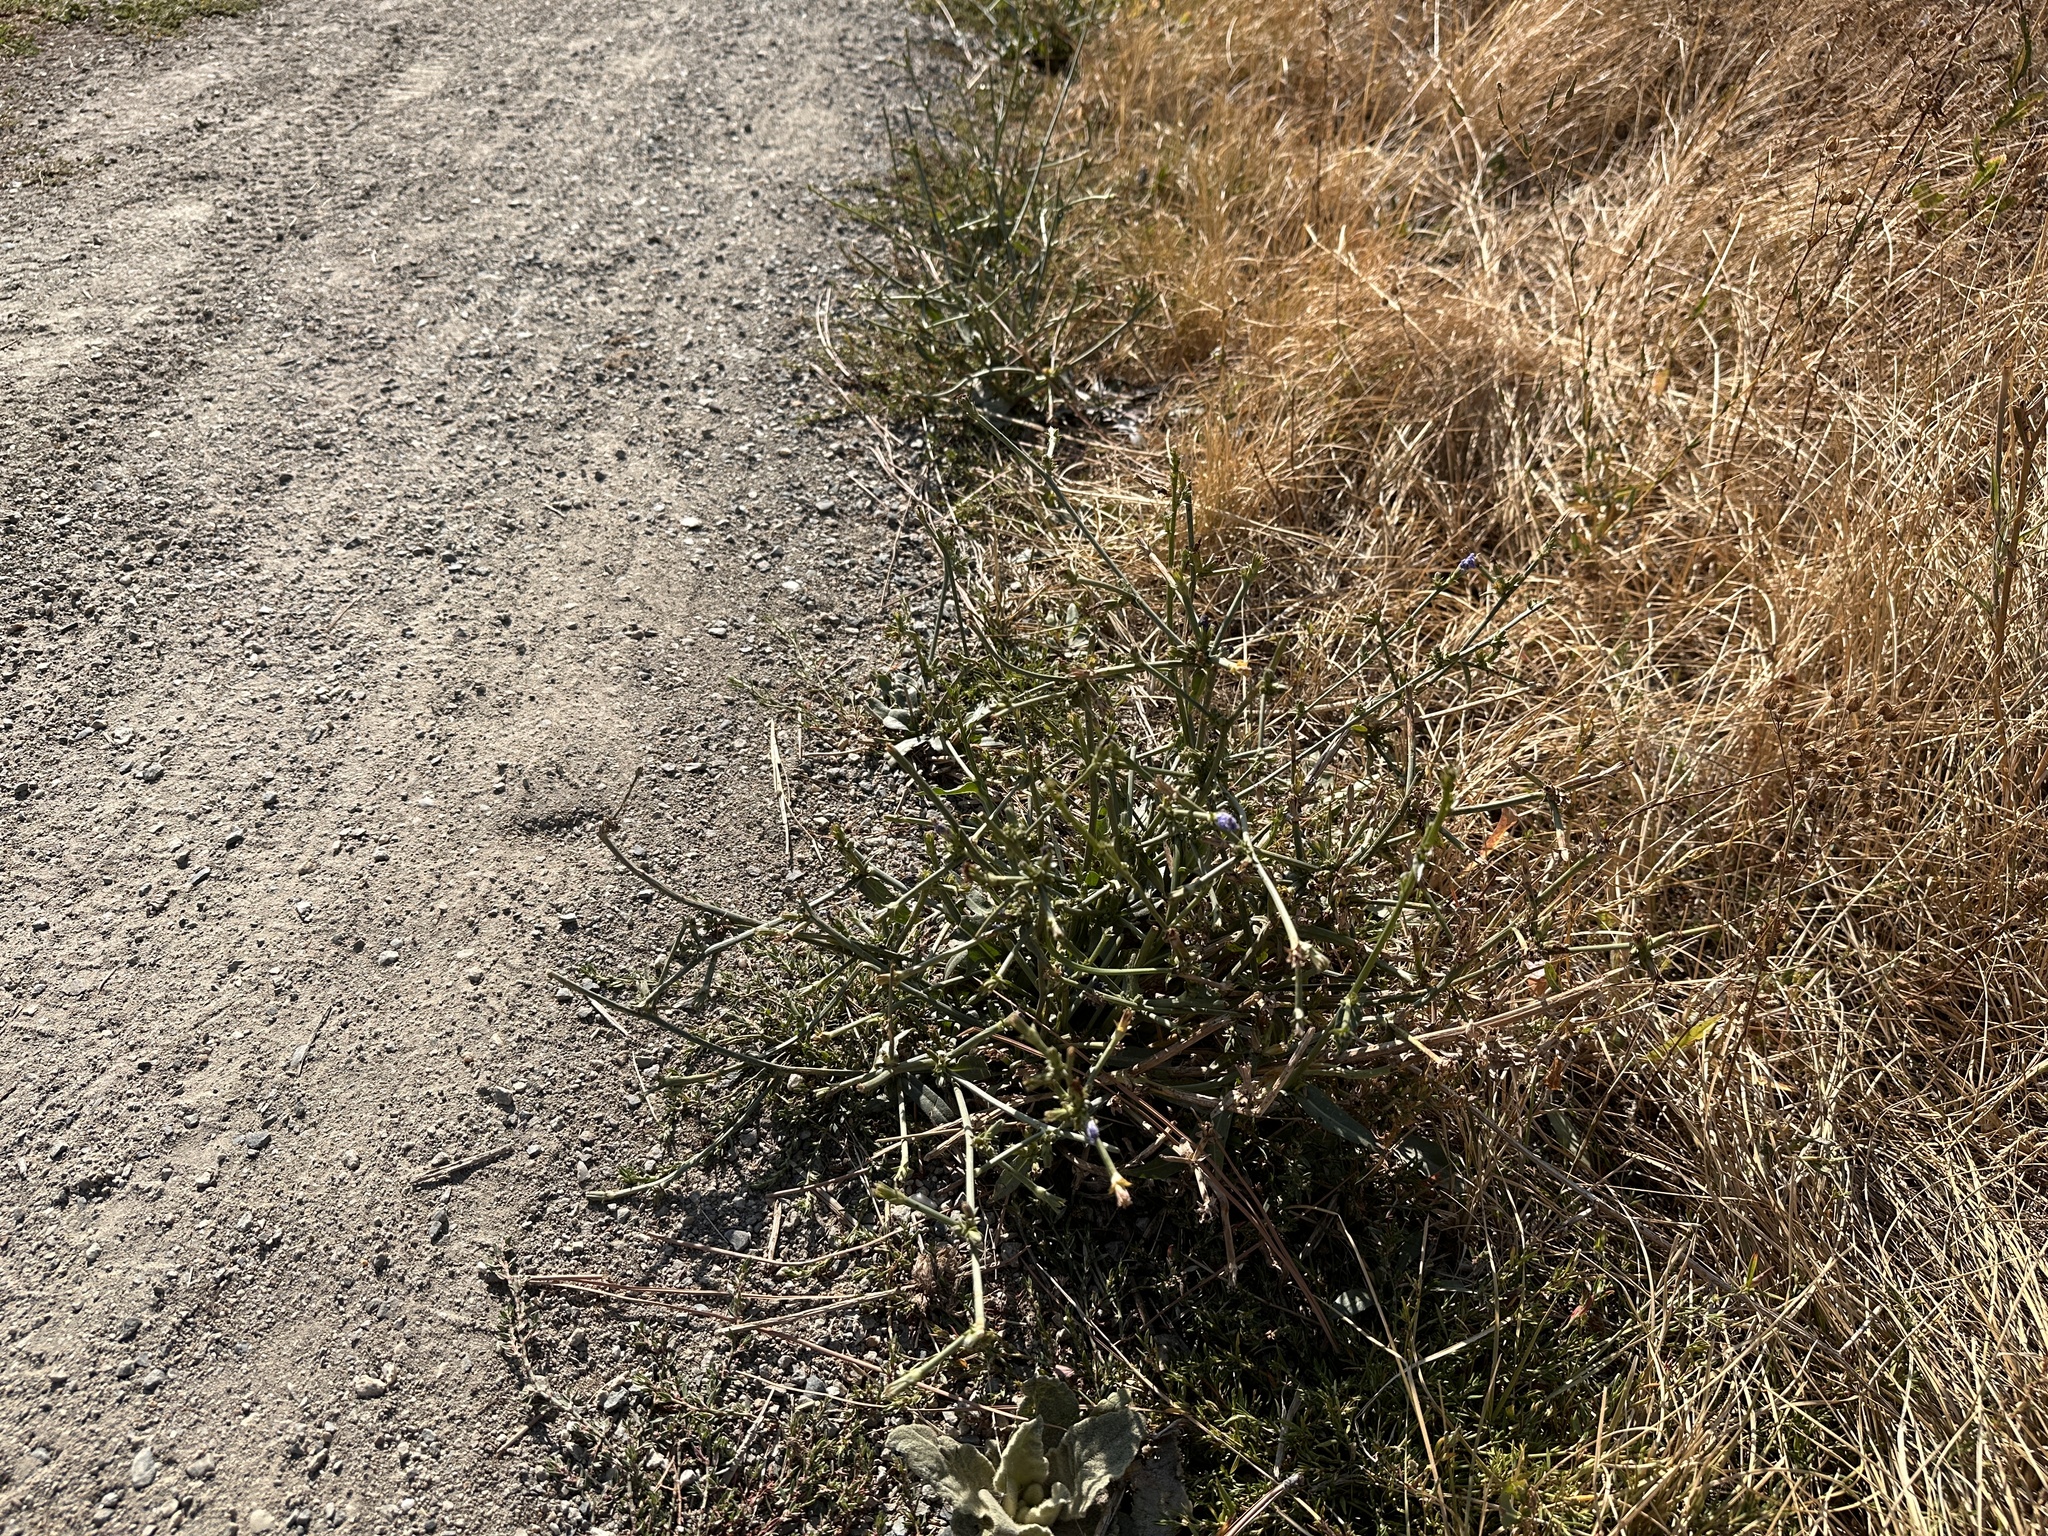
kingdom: Plantae
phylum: Tracheophyta
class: Magnoliopsida
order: Asterales
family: Asteraceae
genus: Cichorium
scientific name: Cichorium intybus
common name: Chicory
